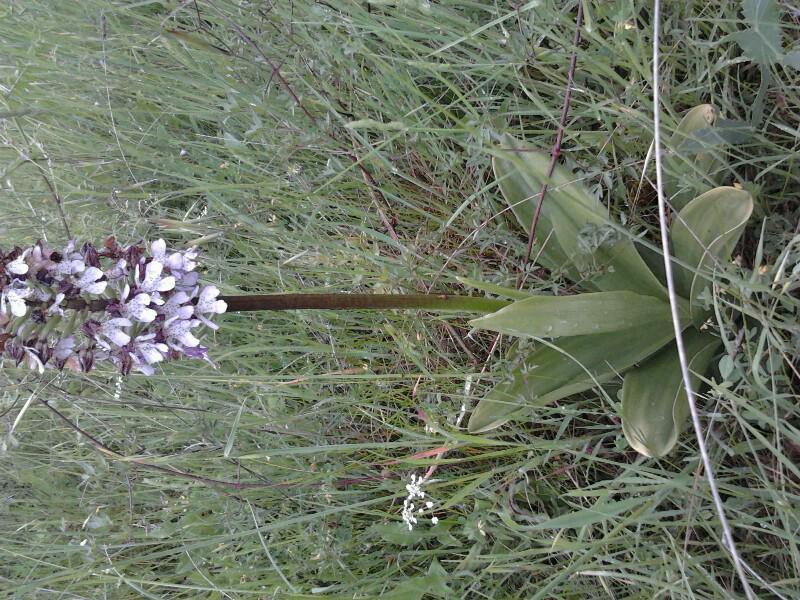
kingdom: Plantae
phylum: Tracheophyta
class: Liliopsida
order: Asparagales
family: Orchidaceae
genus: Orchis
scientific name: Orchis purpurea
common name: Lady orchid
